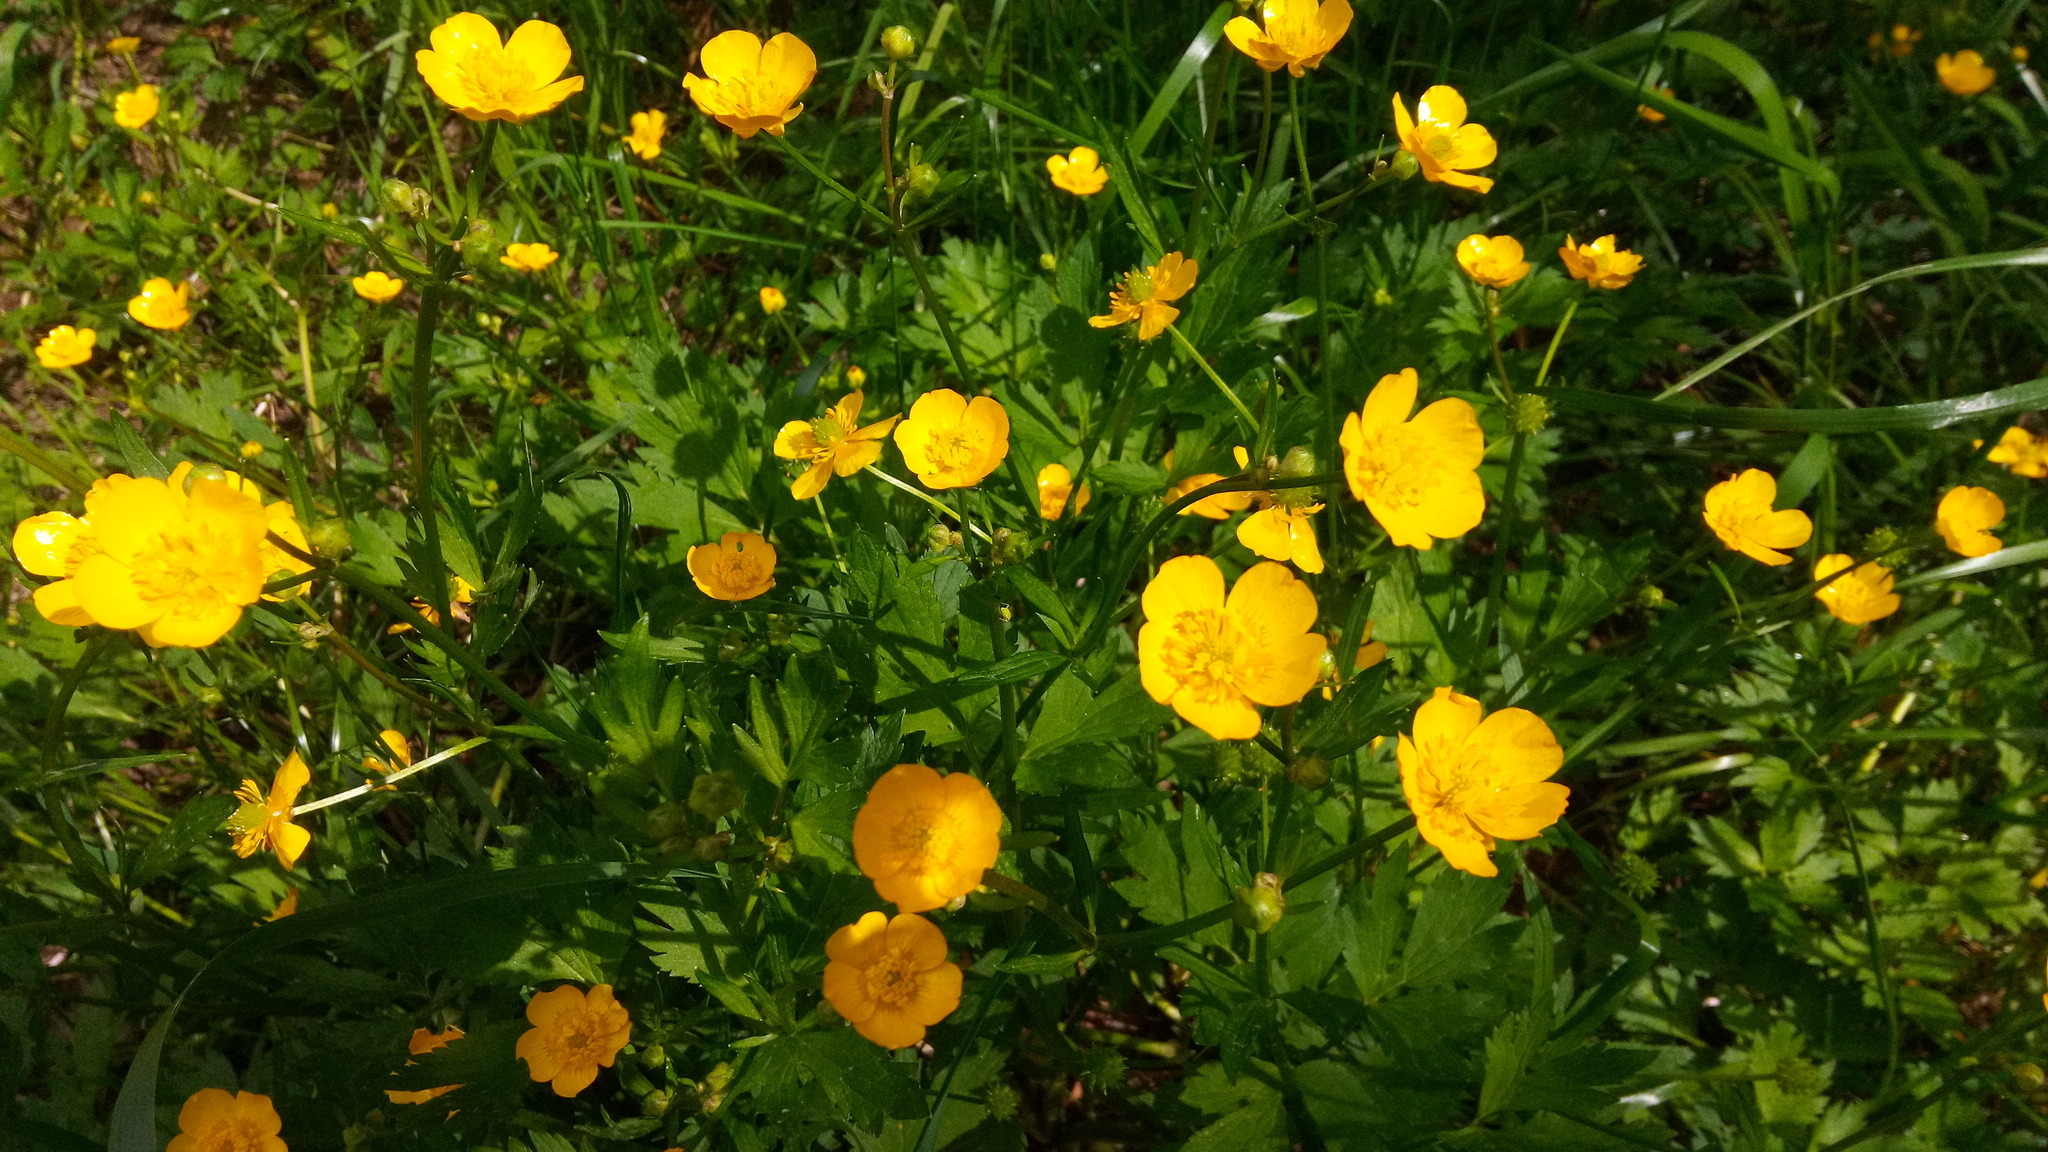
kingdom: Plantae
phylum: Tracheophyta
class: Magnoliopsida
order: Ranunculales
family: Ranunculaceae
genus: Ranunculus
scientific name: Ranunculus repens
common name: Creeping buttercup
